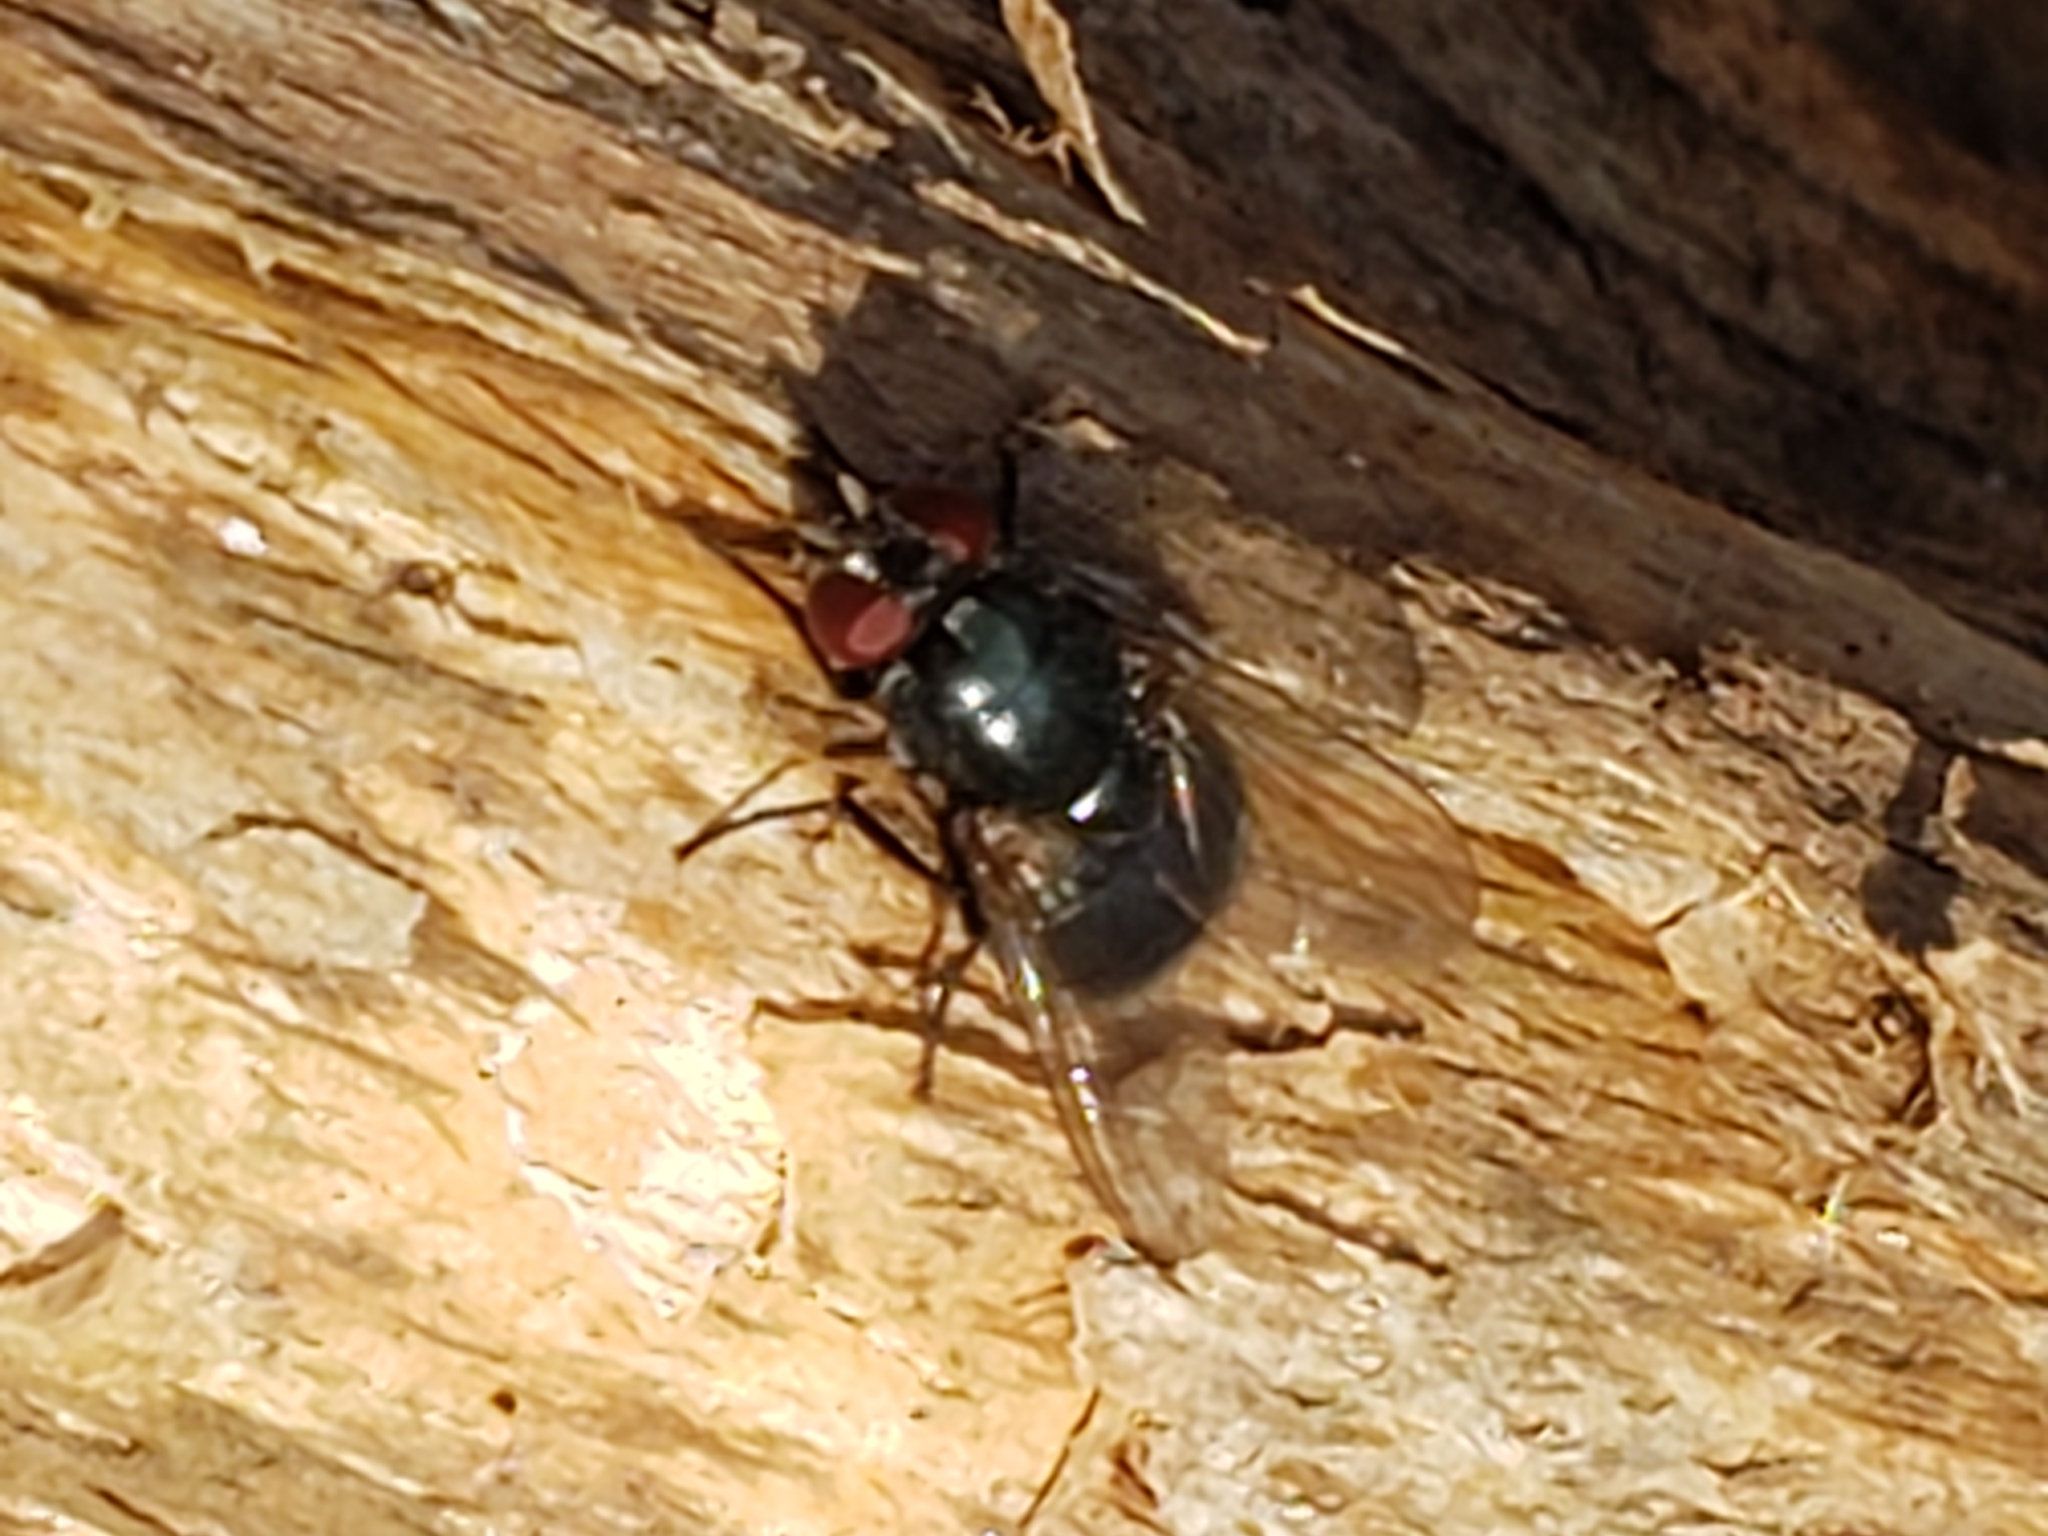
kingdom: Animalia
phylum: Arthropoda
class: Insecta
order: Diptera
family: Muscidae
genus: Eudasyphora
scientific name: Eudasyphora cyanicolor
